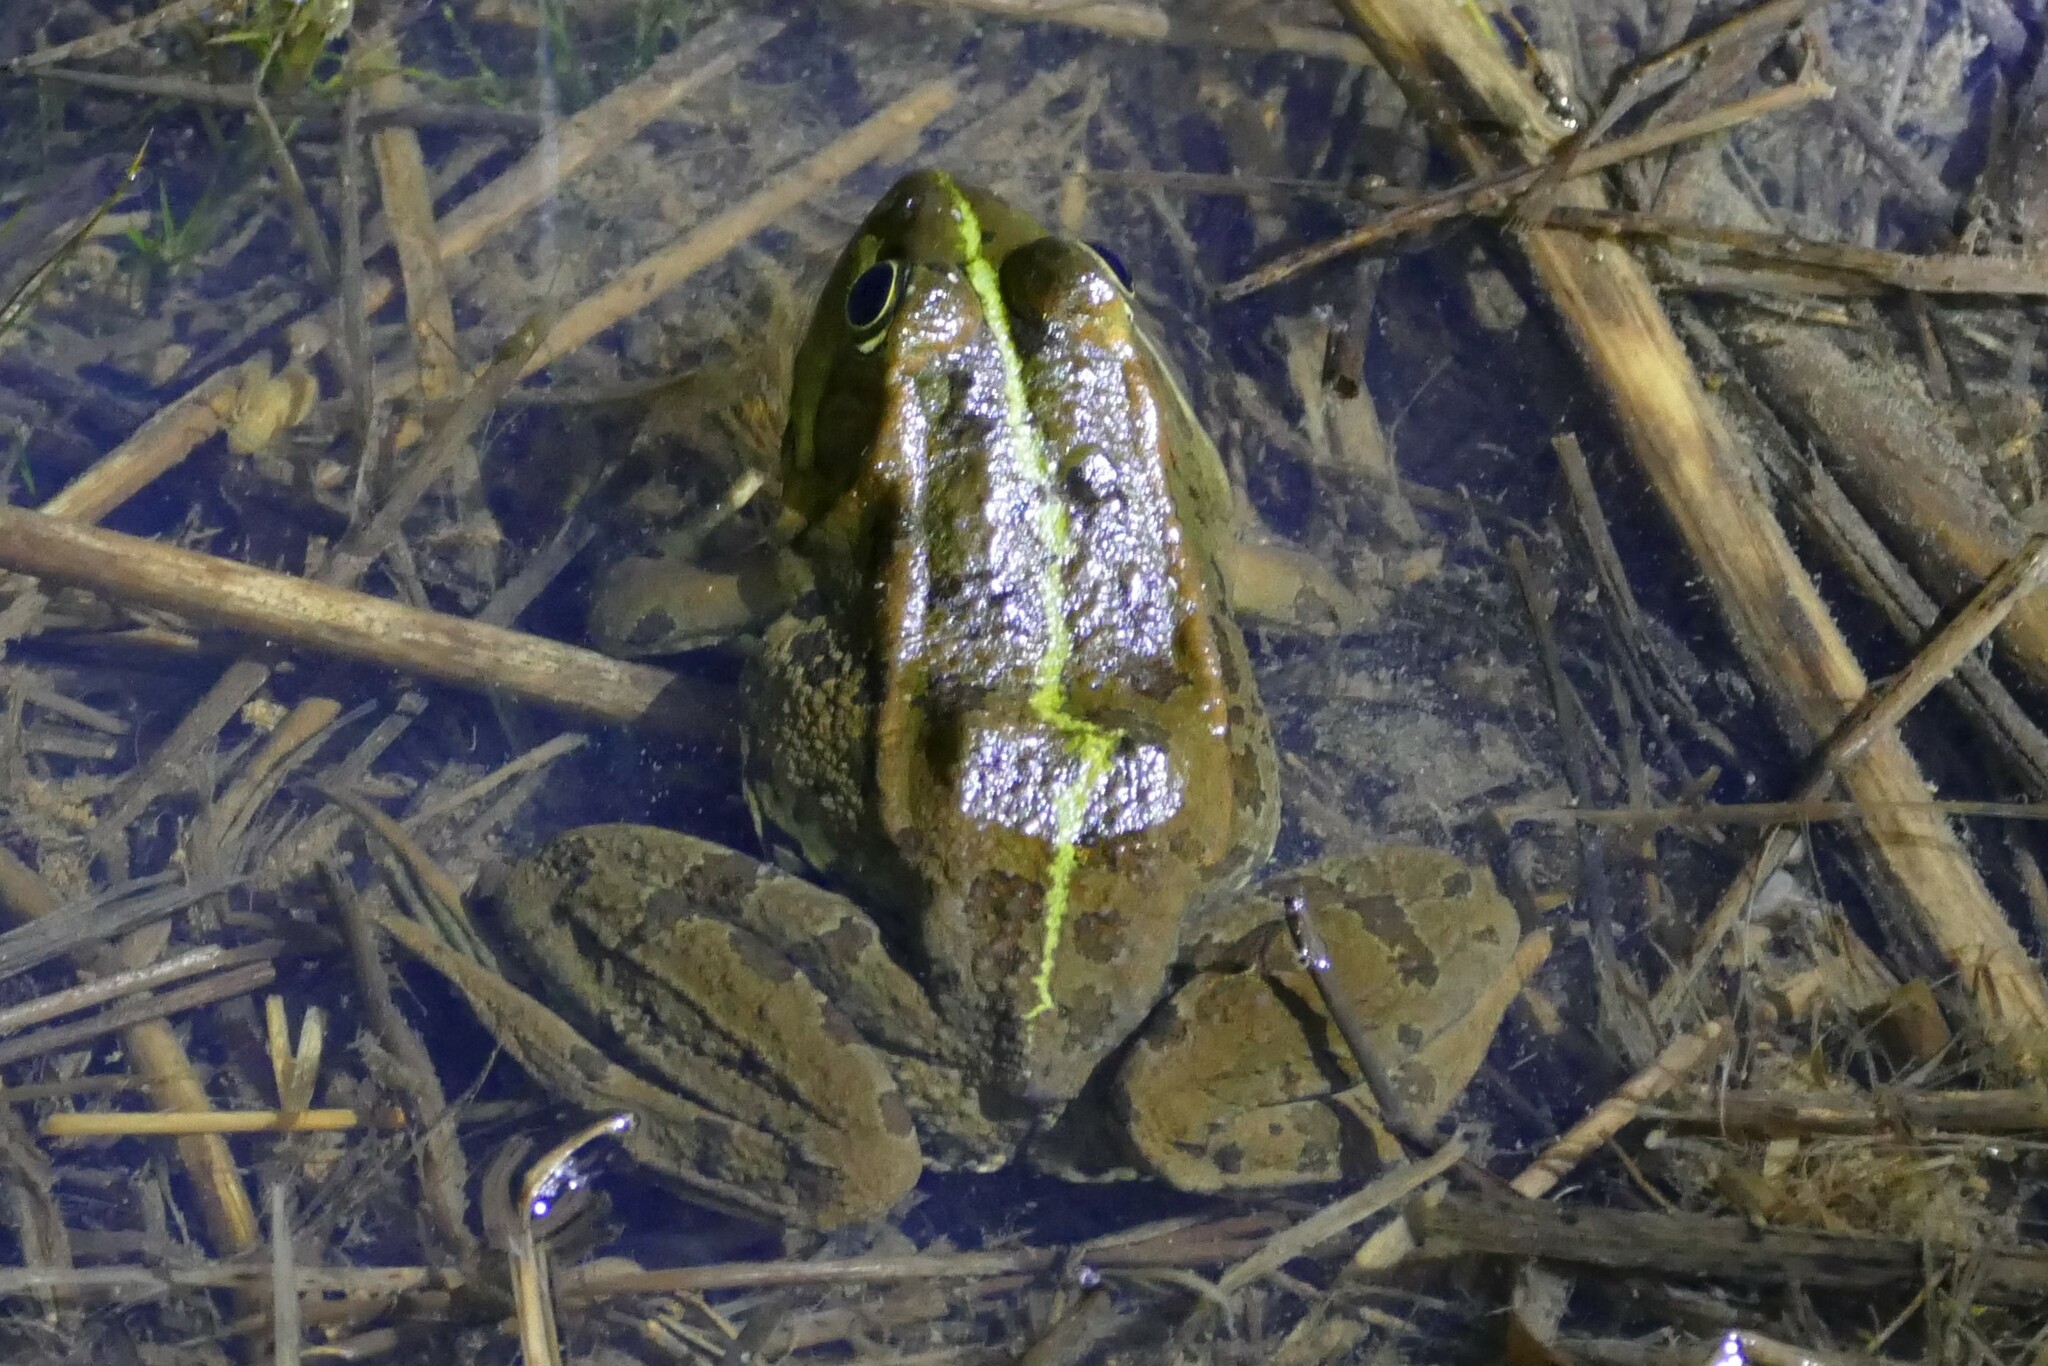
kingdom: Animalia
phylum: Chordata
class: Amphibia
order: Anura
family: Ranidae
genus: Pelophylax
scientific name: Pelophylax perezi
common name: Perez's frog
